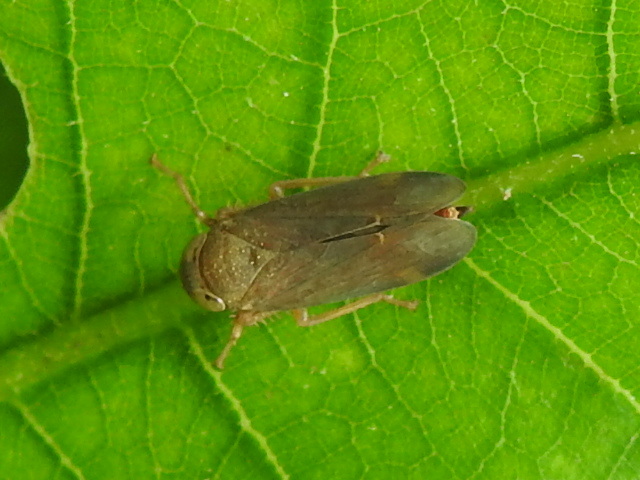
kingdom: Animalia
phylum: Arthropoda
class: Insecta
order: Hemiptera
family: Cicadellidae
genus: Jikradia
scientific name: Jikradia olitoria
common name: Coppery leafhopper
